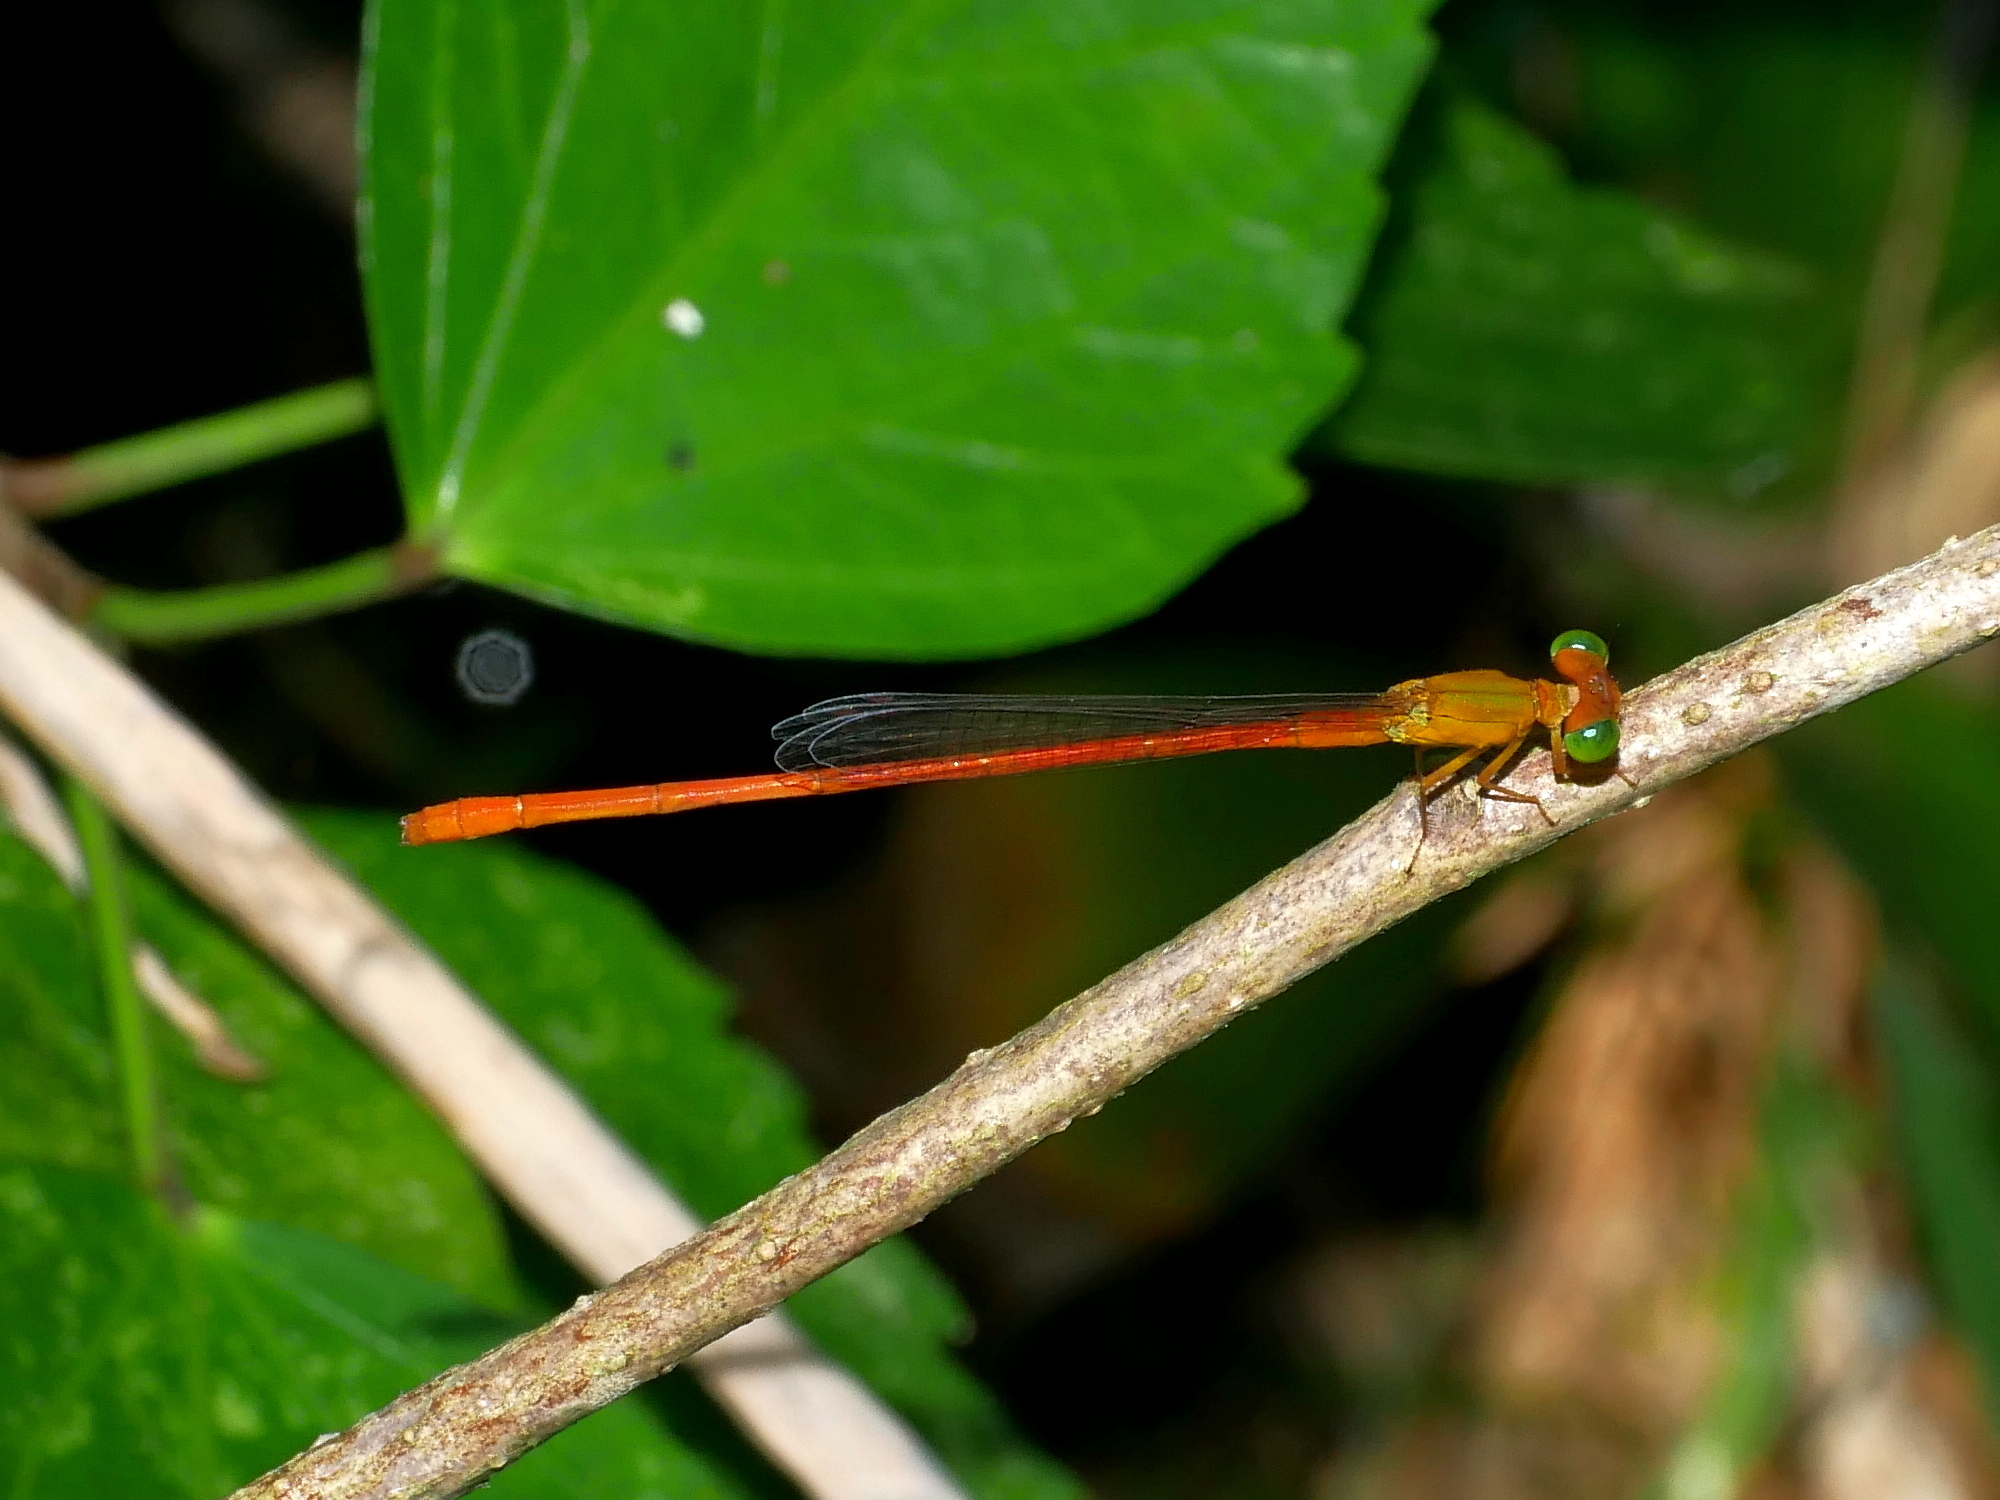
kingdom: Animalia
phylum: Arthropoda
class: Insecta
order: Odonata
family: Coenagrionidae
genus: Ceriagrion
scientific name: Ceriagrion auranticum
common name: Orange-tailed sprite
